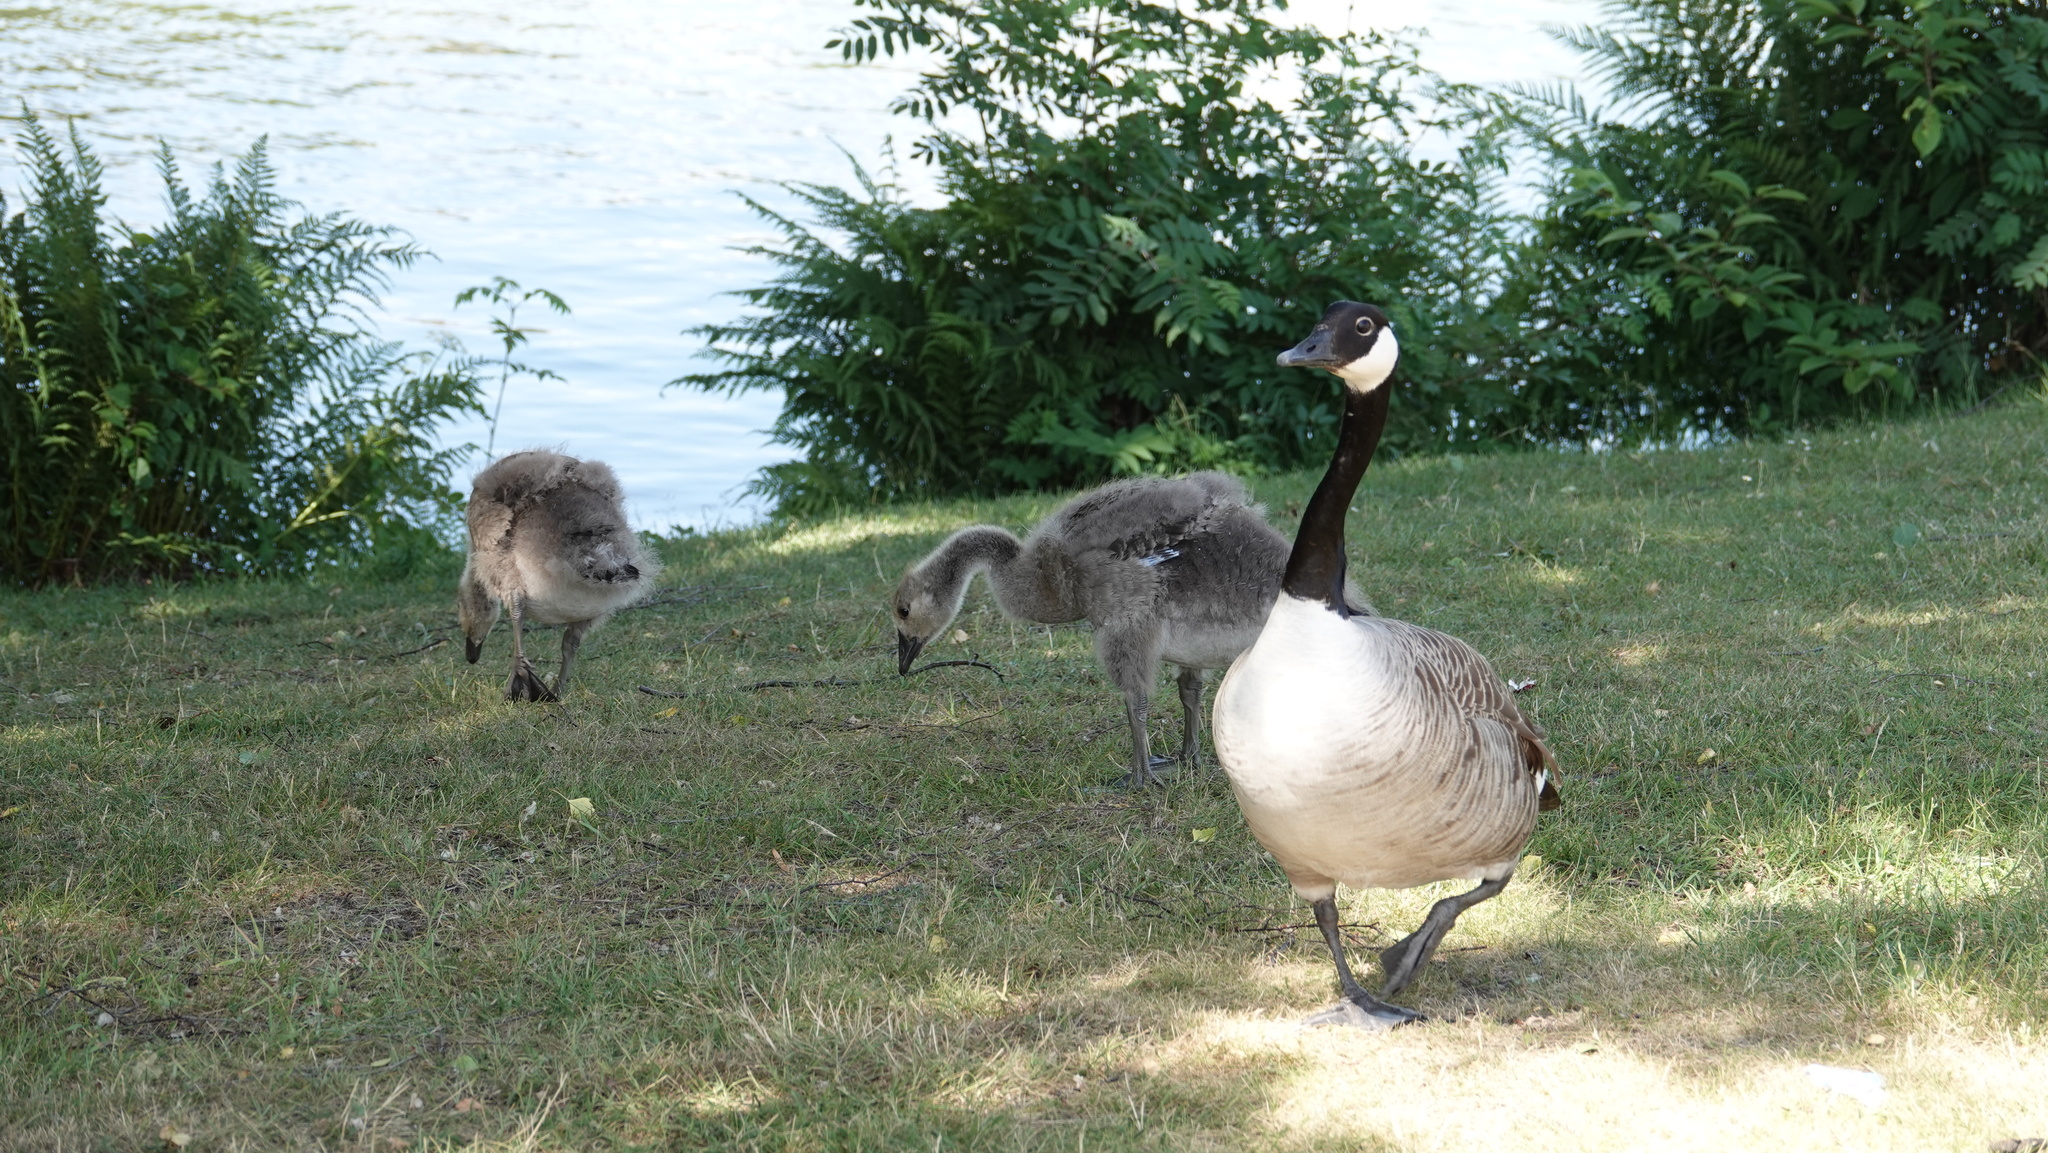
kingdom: Animalia
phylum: Chordata
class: Aves
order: Anseriformes
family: Anatidae
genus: Branta
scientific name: Branta canadensis
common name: Canada goose
